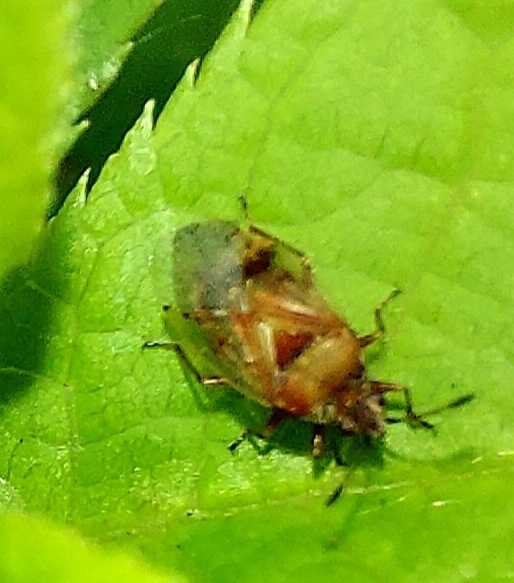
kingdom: Animalia
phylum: Arthropoda
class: Insecta
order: Hemiptera
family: Lygaeidae
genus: Kleidocerys
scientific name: Kleidocerys resedae
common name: Birch catkin bug
